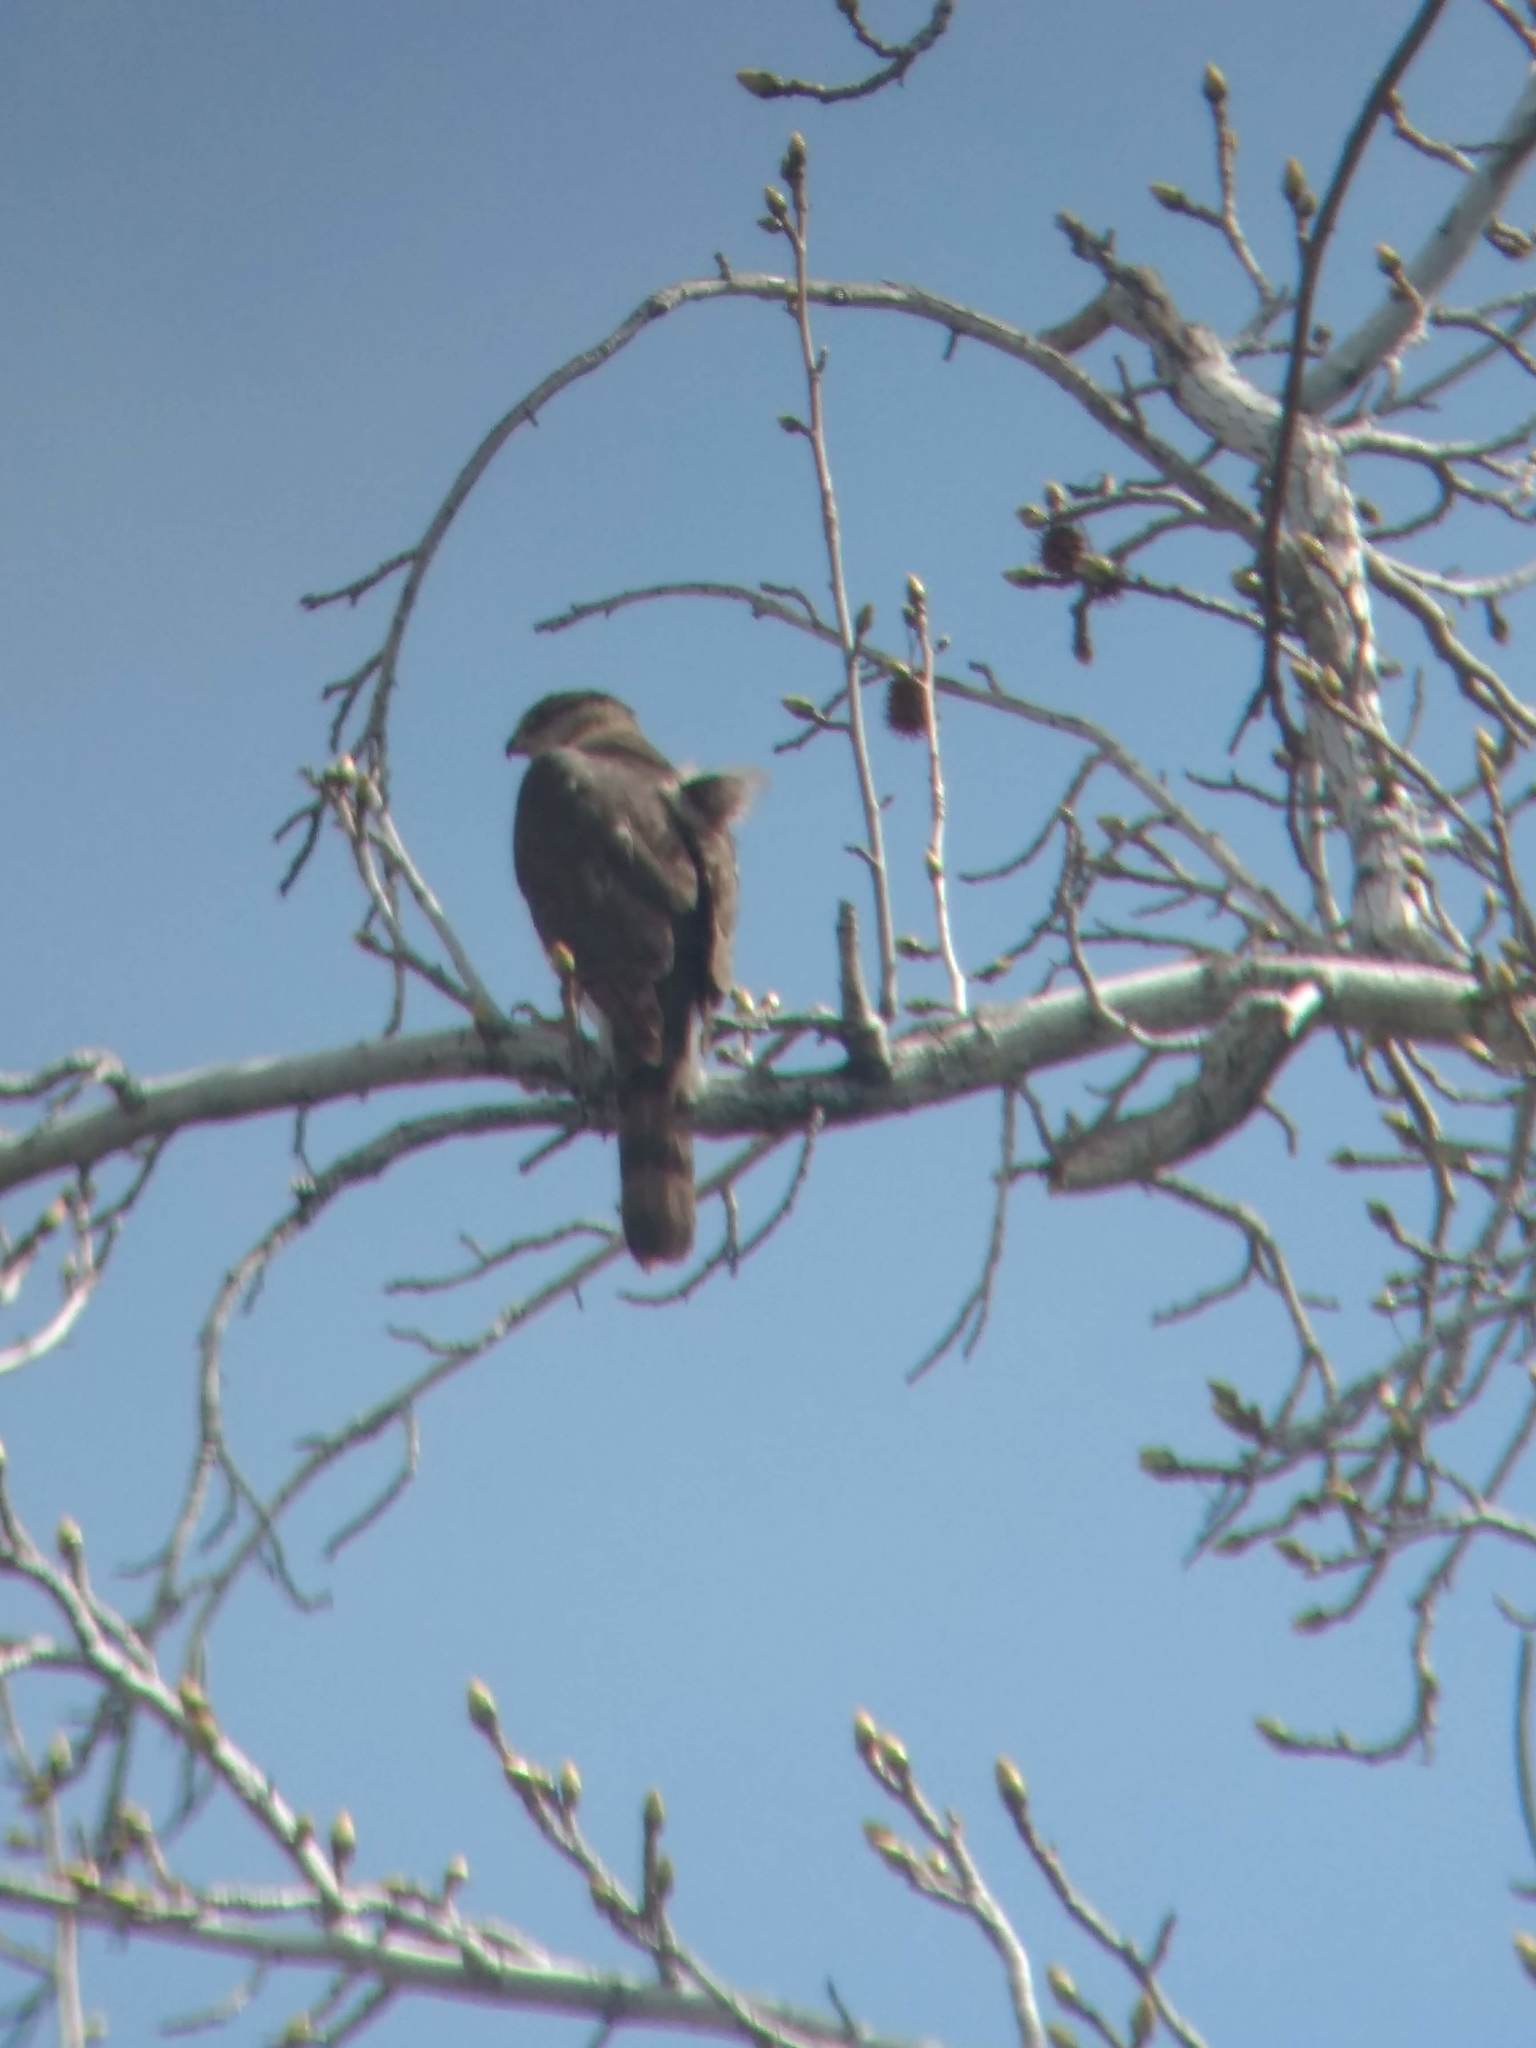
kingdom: Animalia
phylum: Chordata
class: Aves
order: Accipitriformes
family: Accipitridae
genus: Accipiter
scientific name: Accipiter cooperii
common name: Cooper's hawk
